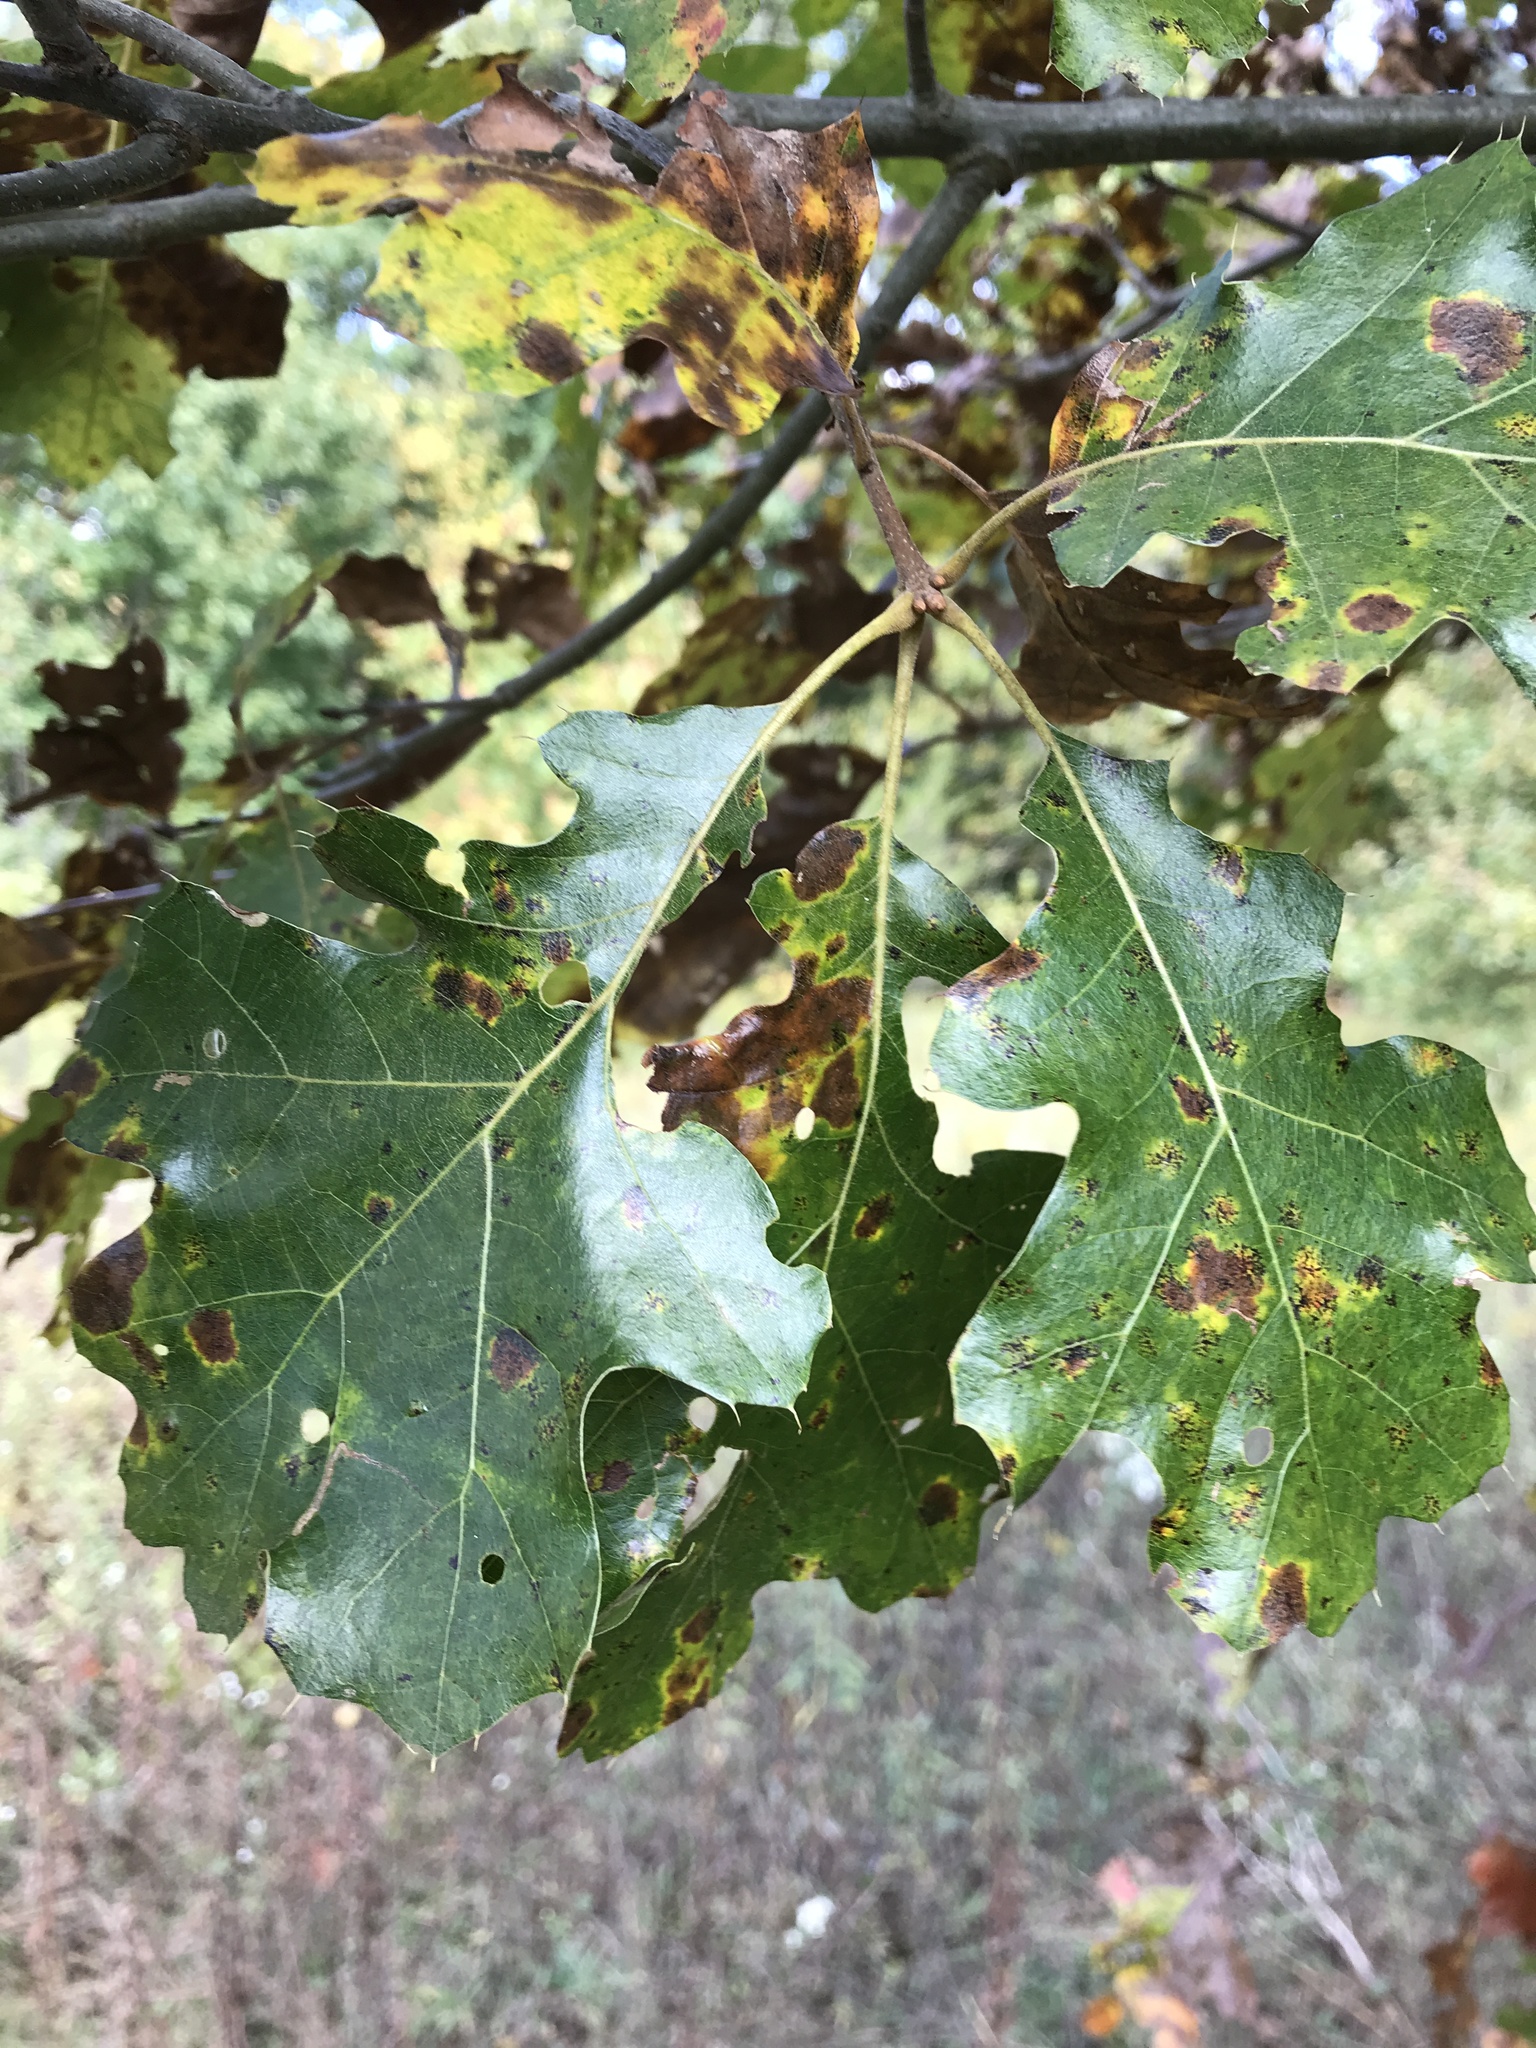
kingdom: Plantae
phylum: Tracheophyta
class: Magnoliopsida
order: Fagales
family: Fagaceae
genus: Quercus
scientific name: Quercus velutina
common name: Black oak
